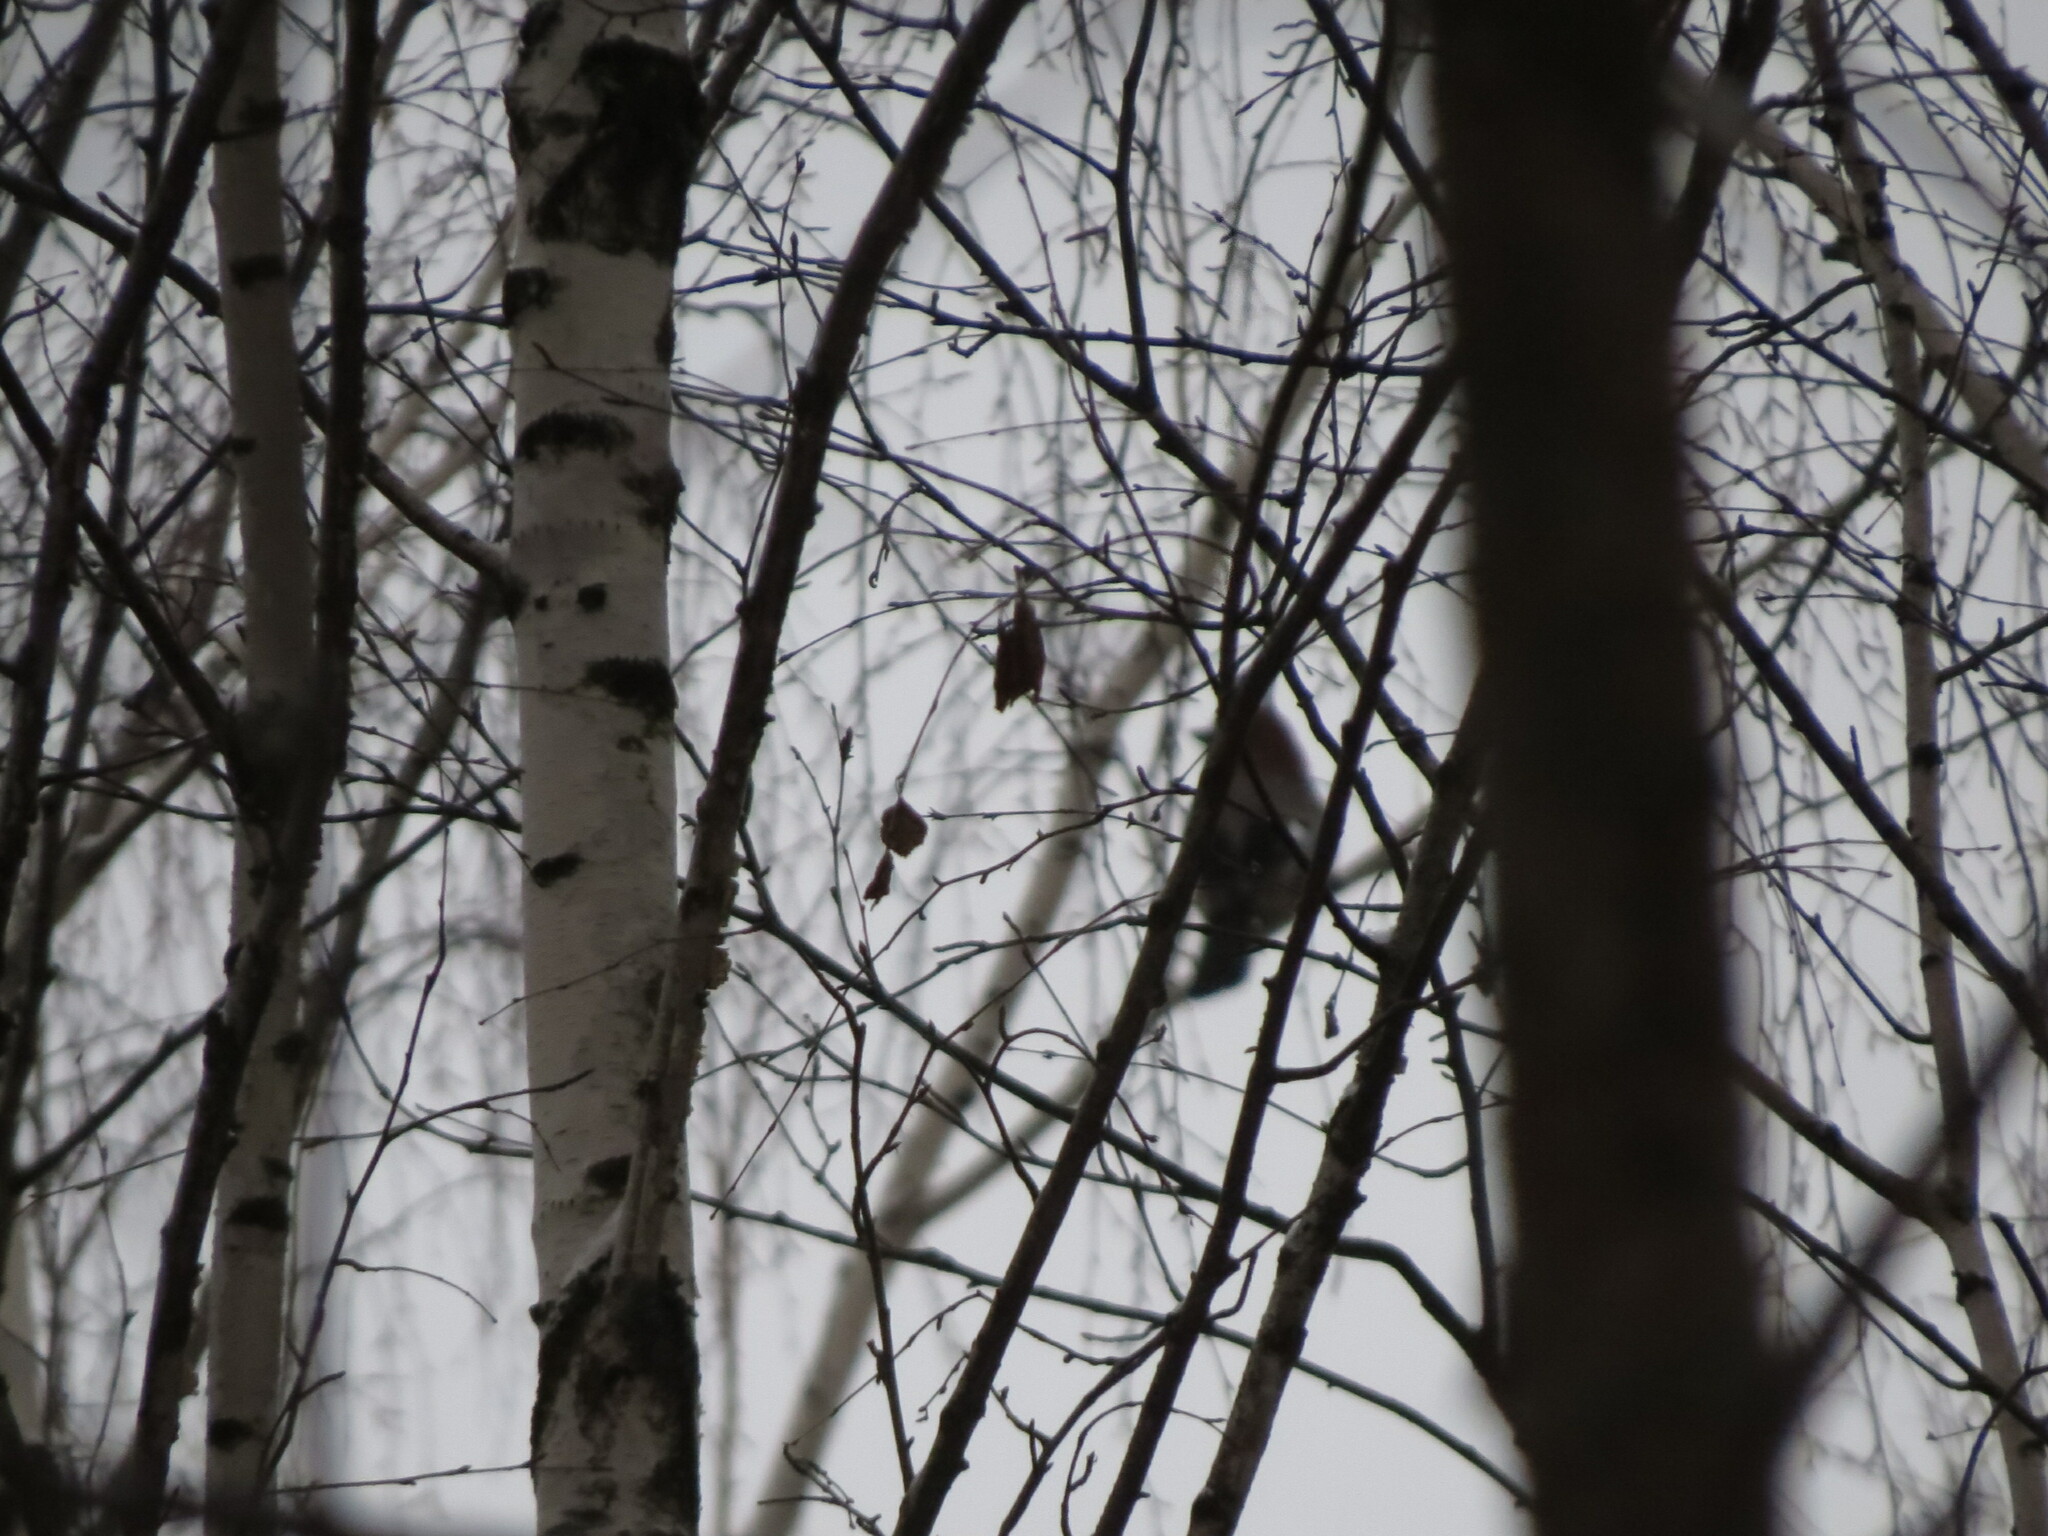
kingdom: Animalia
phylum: Chordata
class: Aves
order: Passeriformes
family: Corvidae
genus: Garrulus
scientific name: Garrulus glandarius
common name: Eurasian jay
